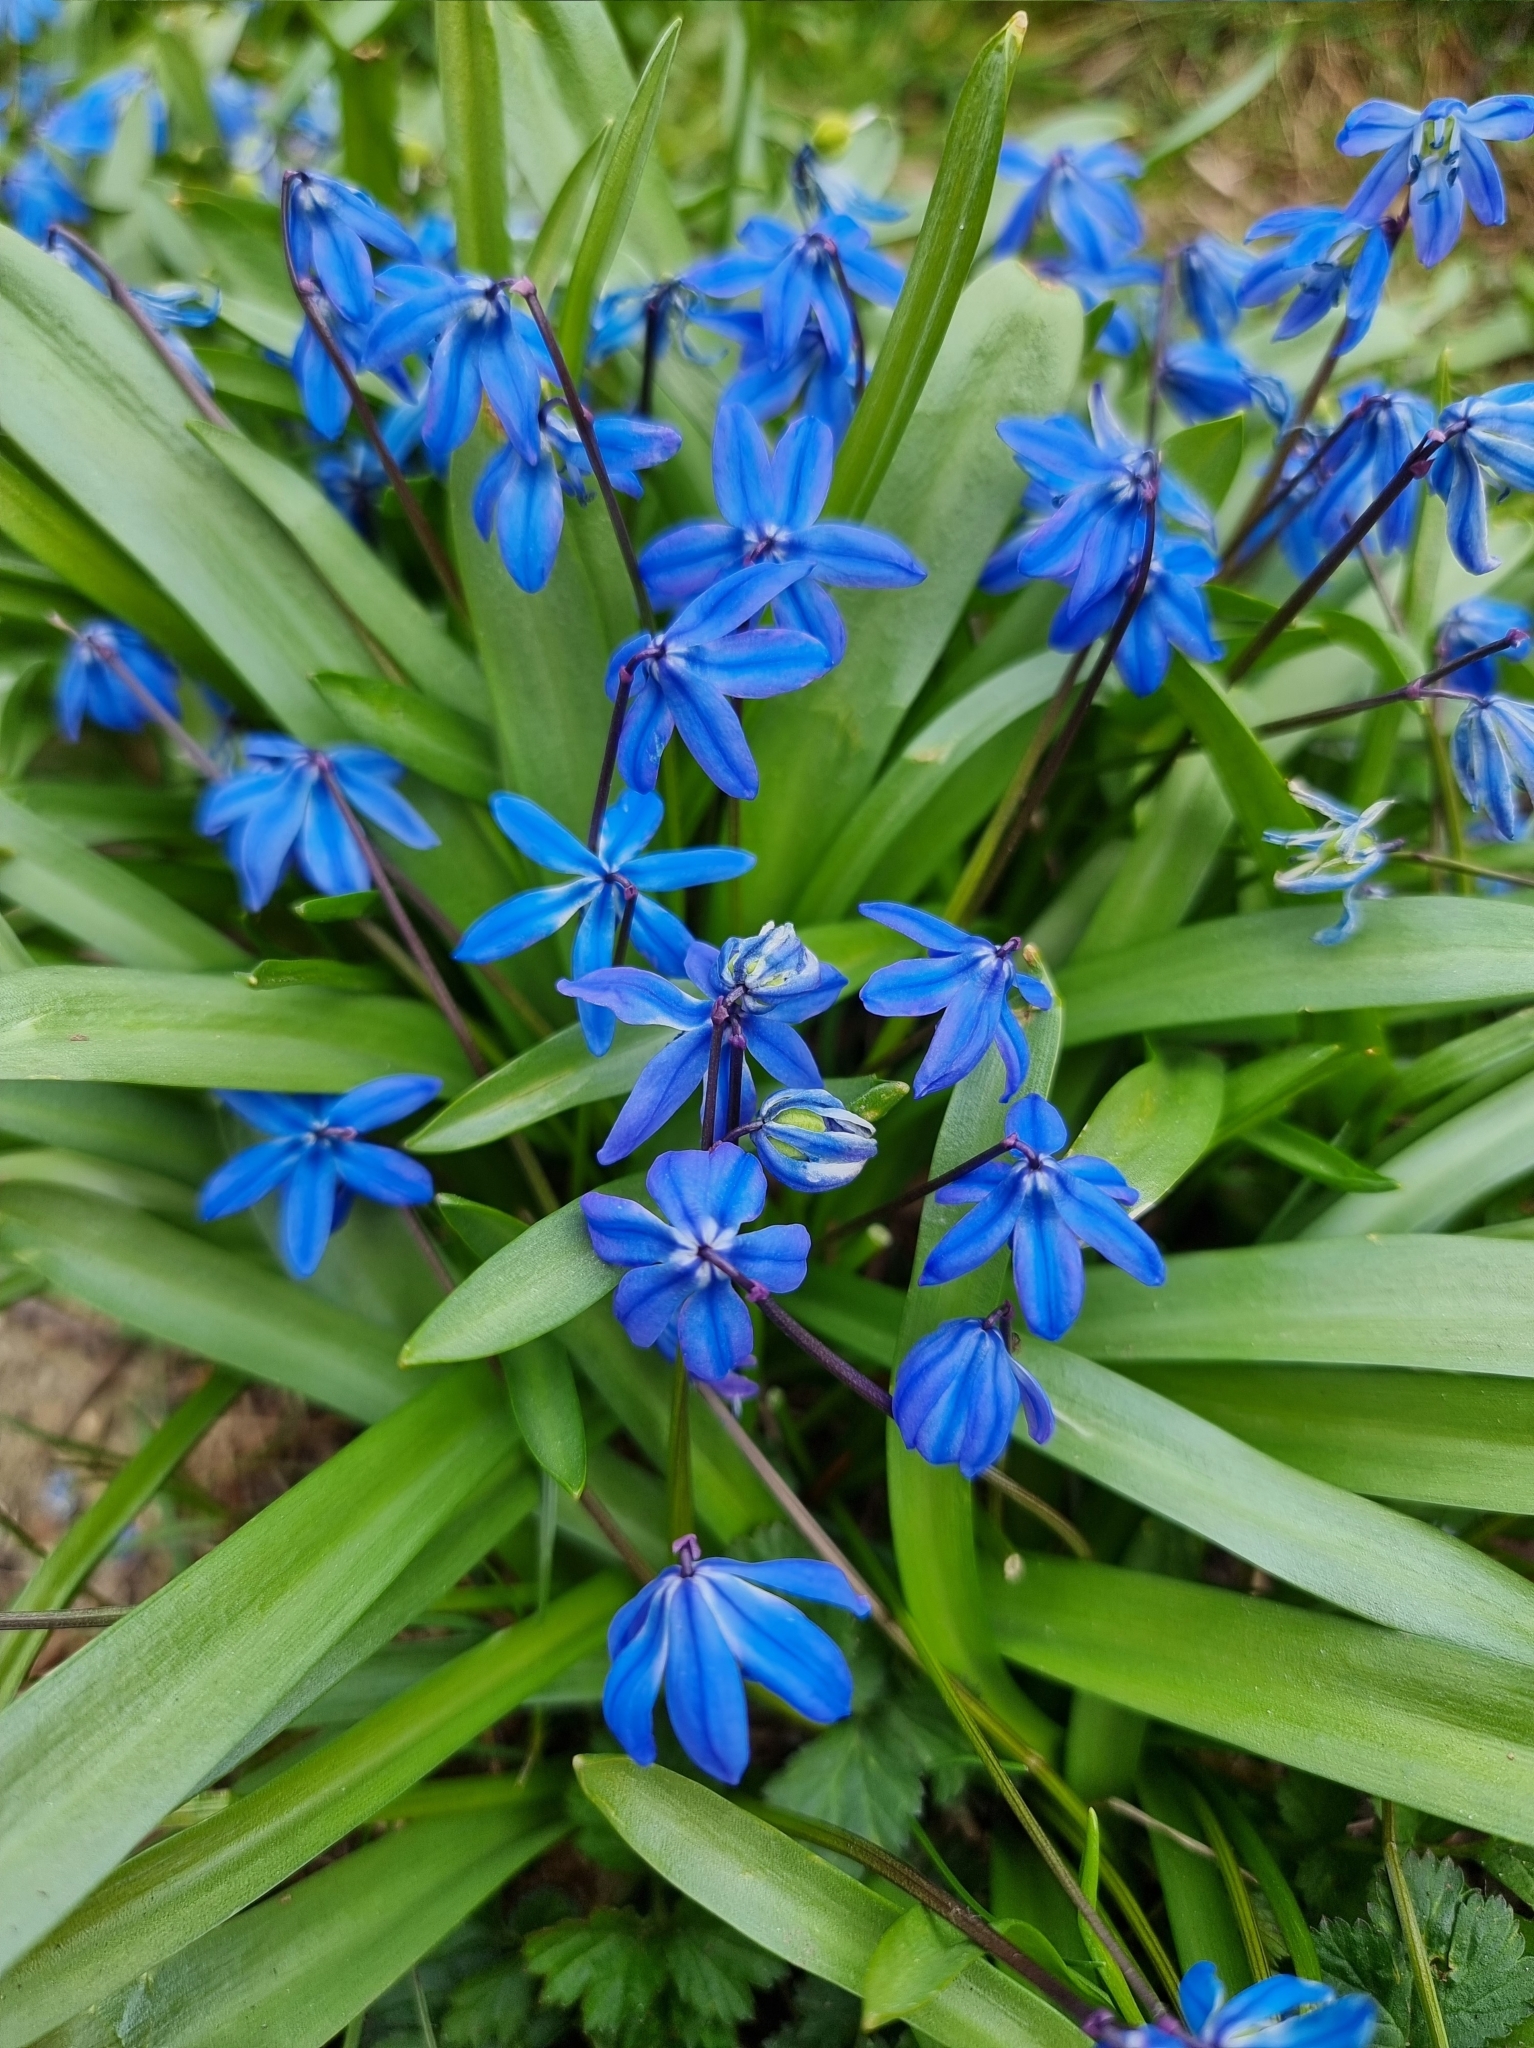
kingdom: Plantae
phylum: Tracheophyta
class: Liliopsida
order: Asparagales
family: Asparagaceae
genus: Scilla
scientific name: Scilla siberica
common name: Siberian squill
